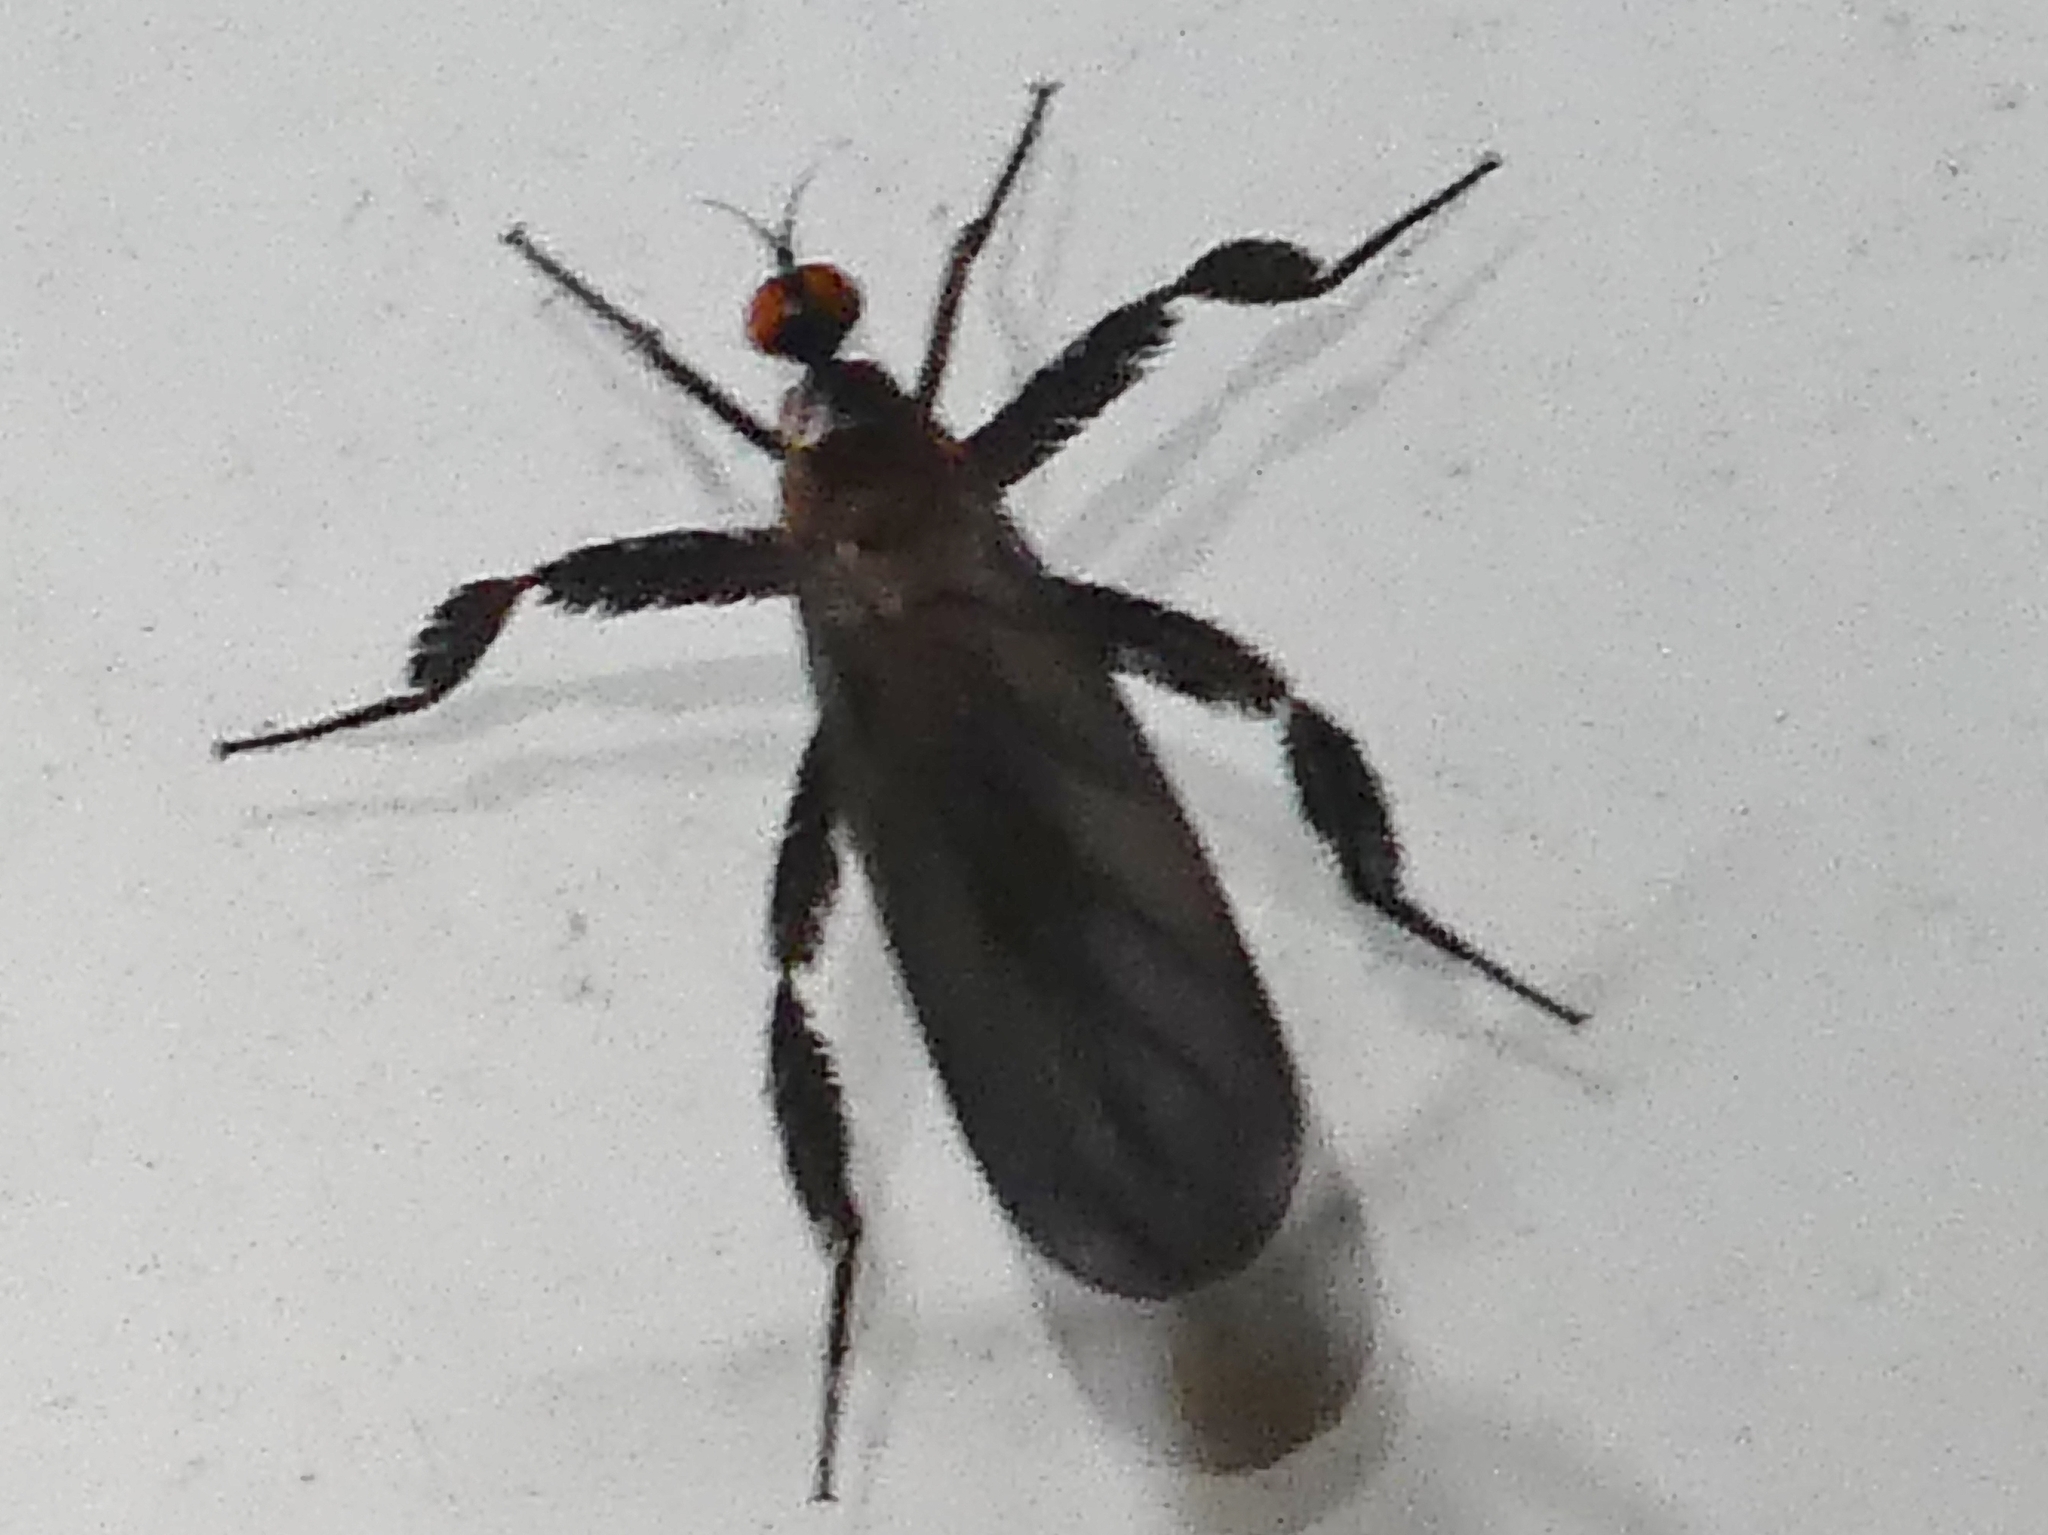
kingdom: Animalia
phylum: Arthropoda
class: Insecta
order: Diptera
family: Empididae
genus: Rhamphomyia
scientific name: Rhamphomyia longicauda
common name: Long-tailed dance fly
